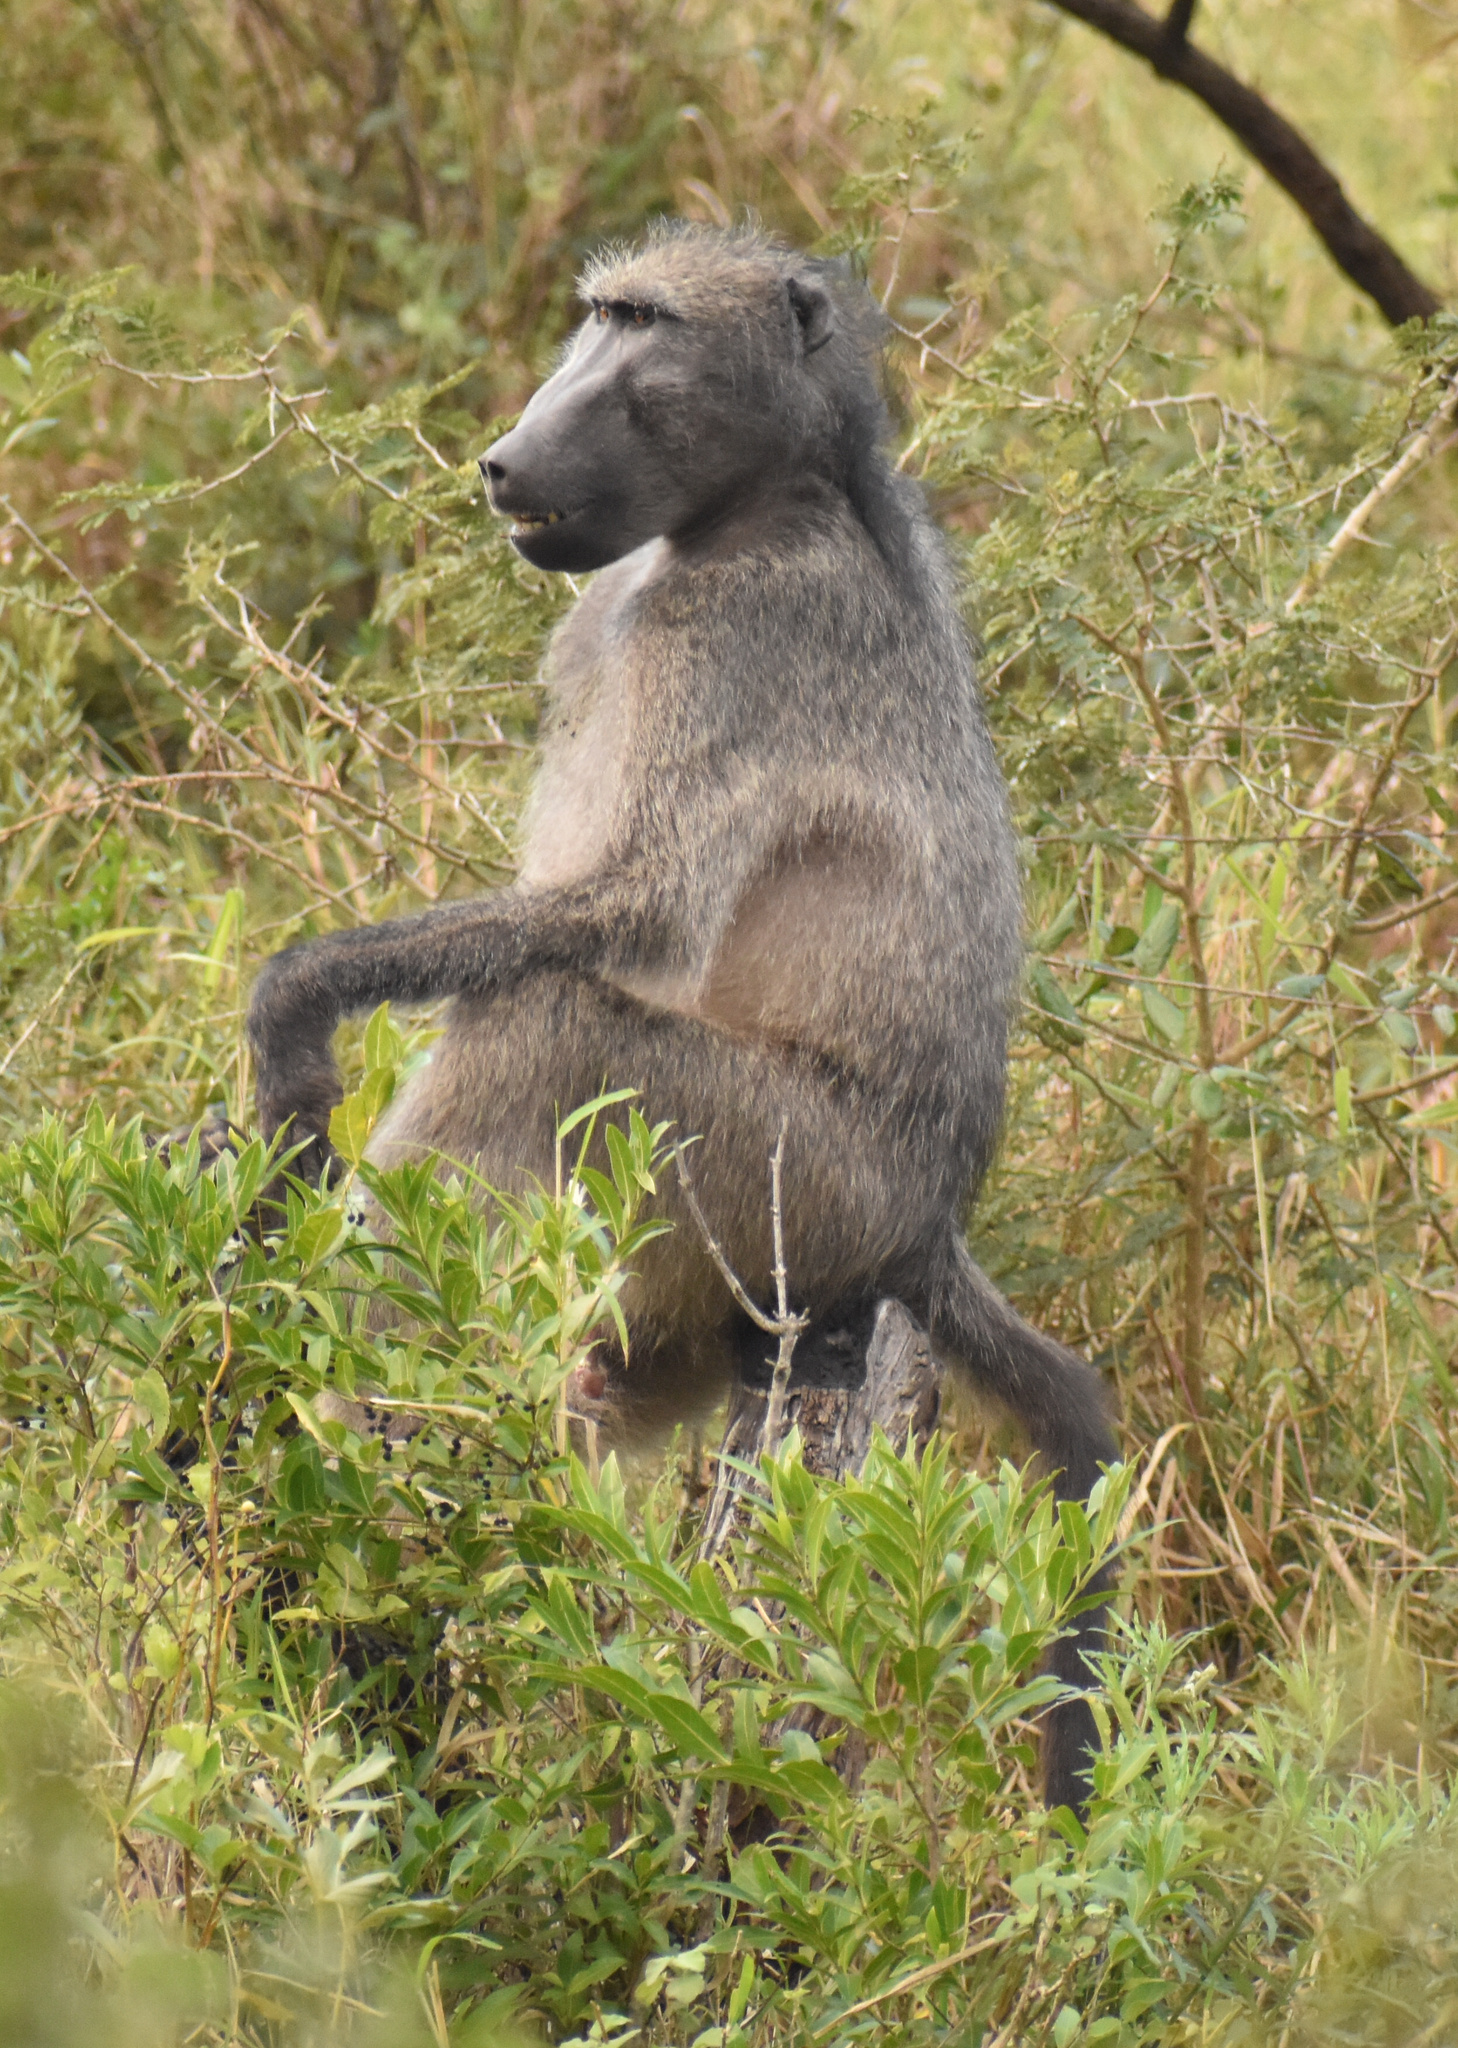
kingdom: Animalia
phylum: Chordata
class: Mammalia
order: Primates
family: Cercopithecidae
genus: Papio
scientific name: Papio ursinus
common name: Chacma baboon
